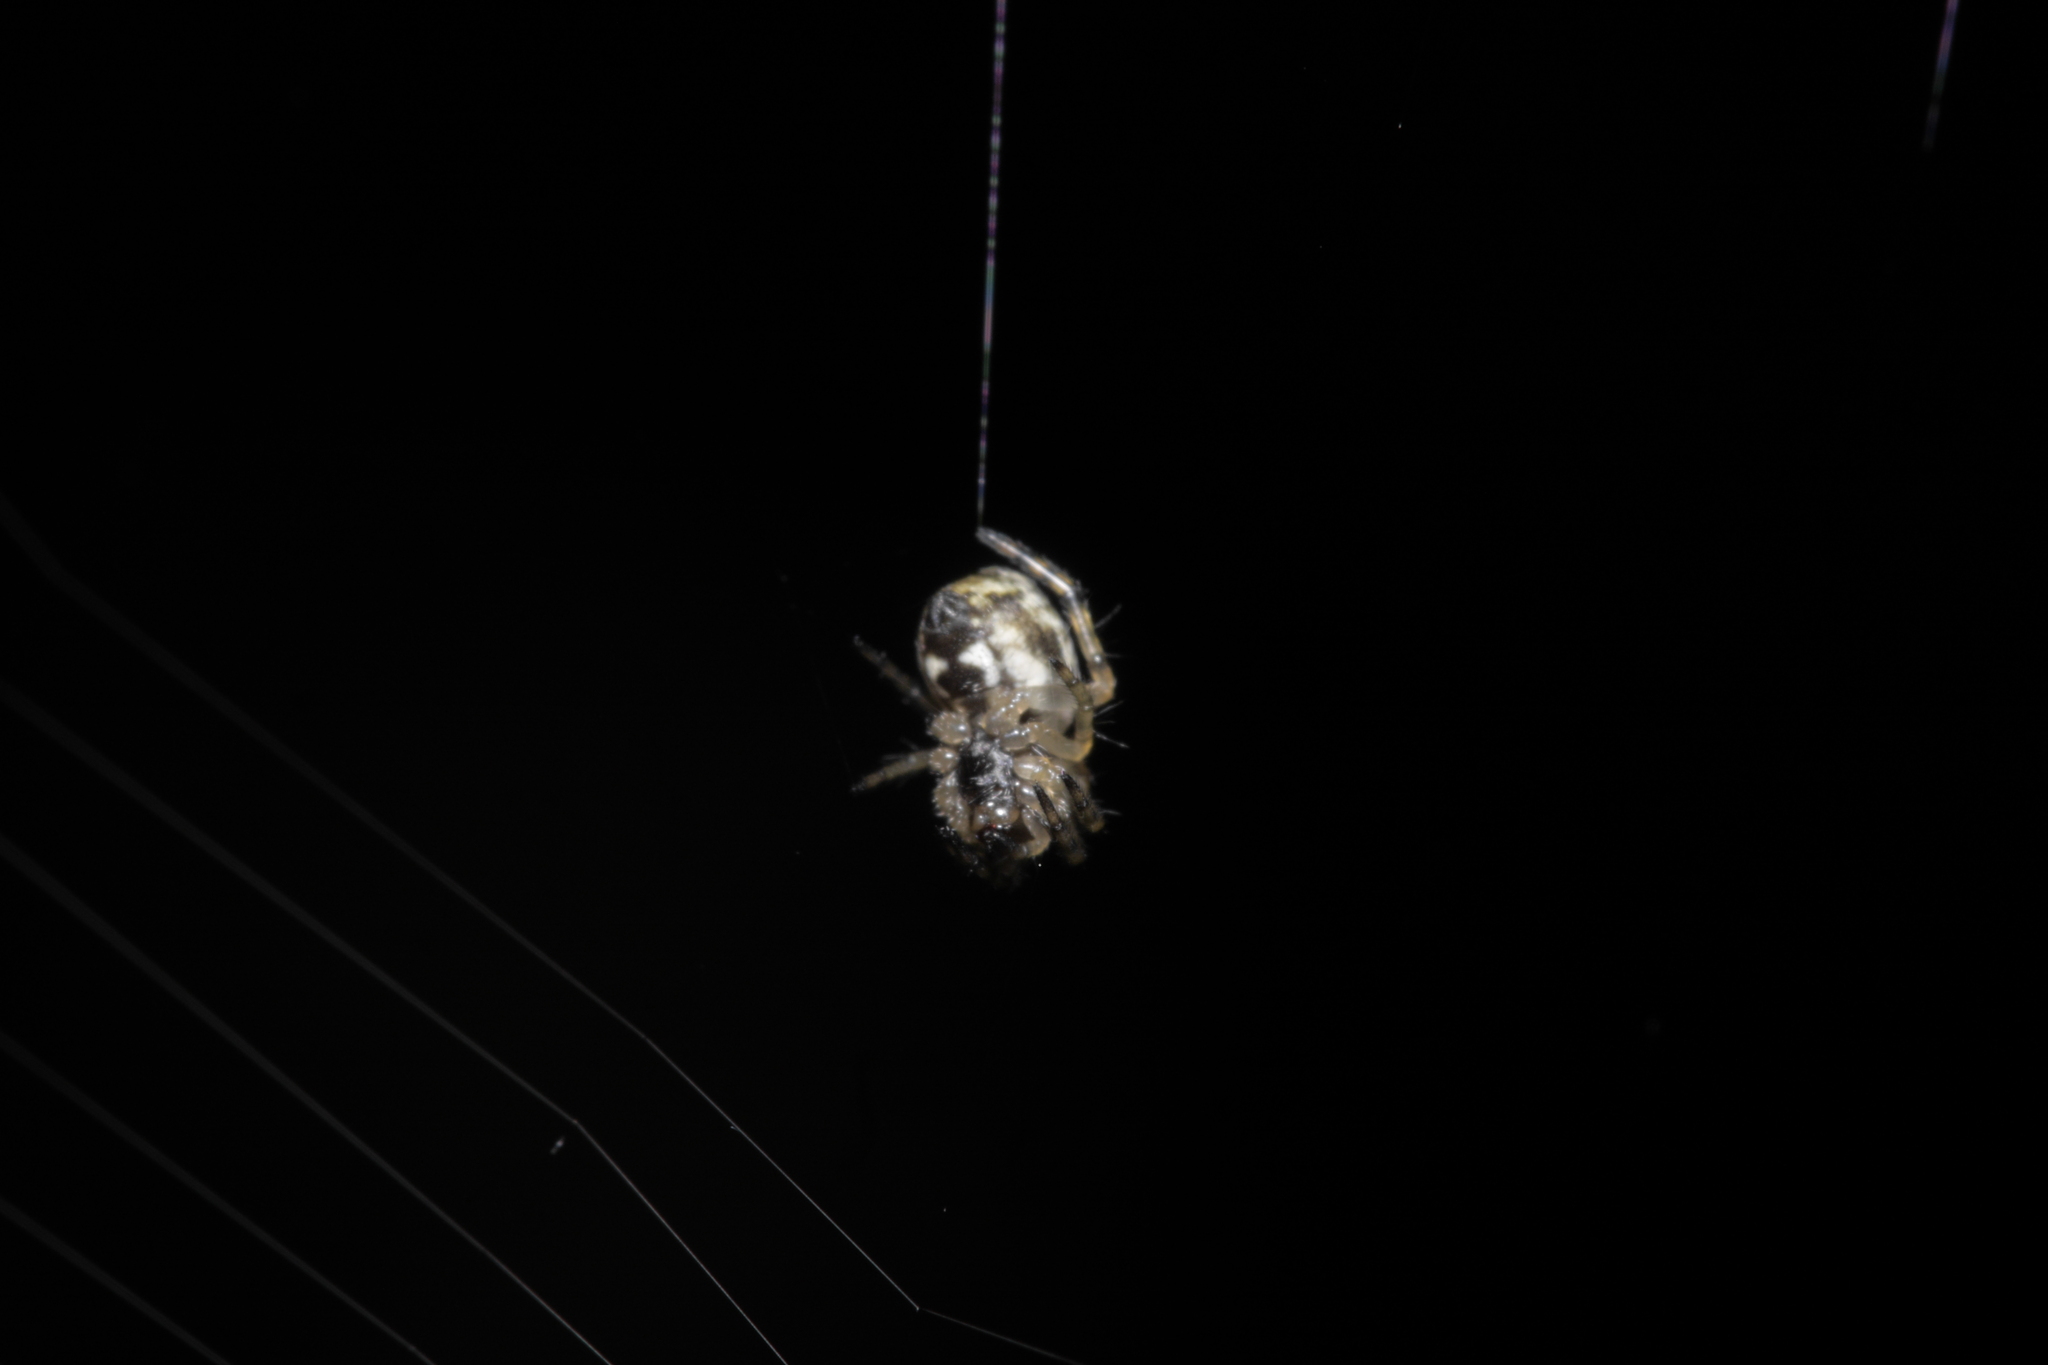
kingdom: Animalia
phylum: Arthropoda
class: Arachnida
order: Araneae
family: Araneidae
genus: Cyclosa
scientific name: Cyclosa conica
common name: Conical trashline orbweaver
